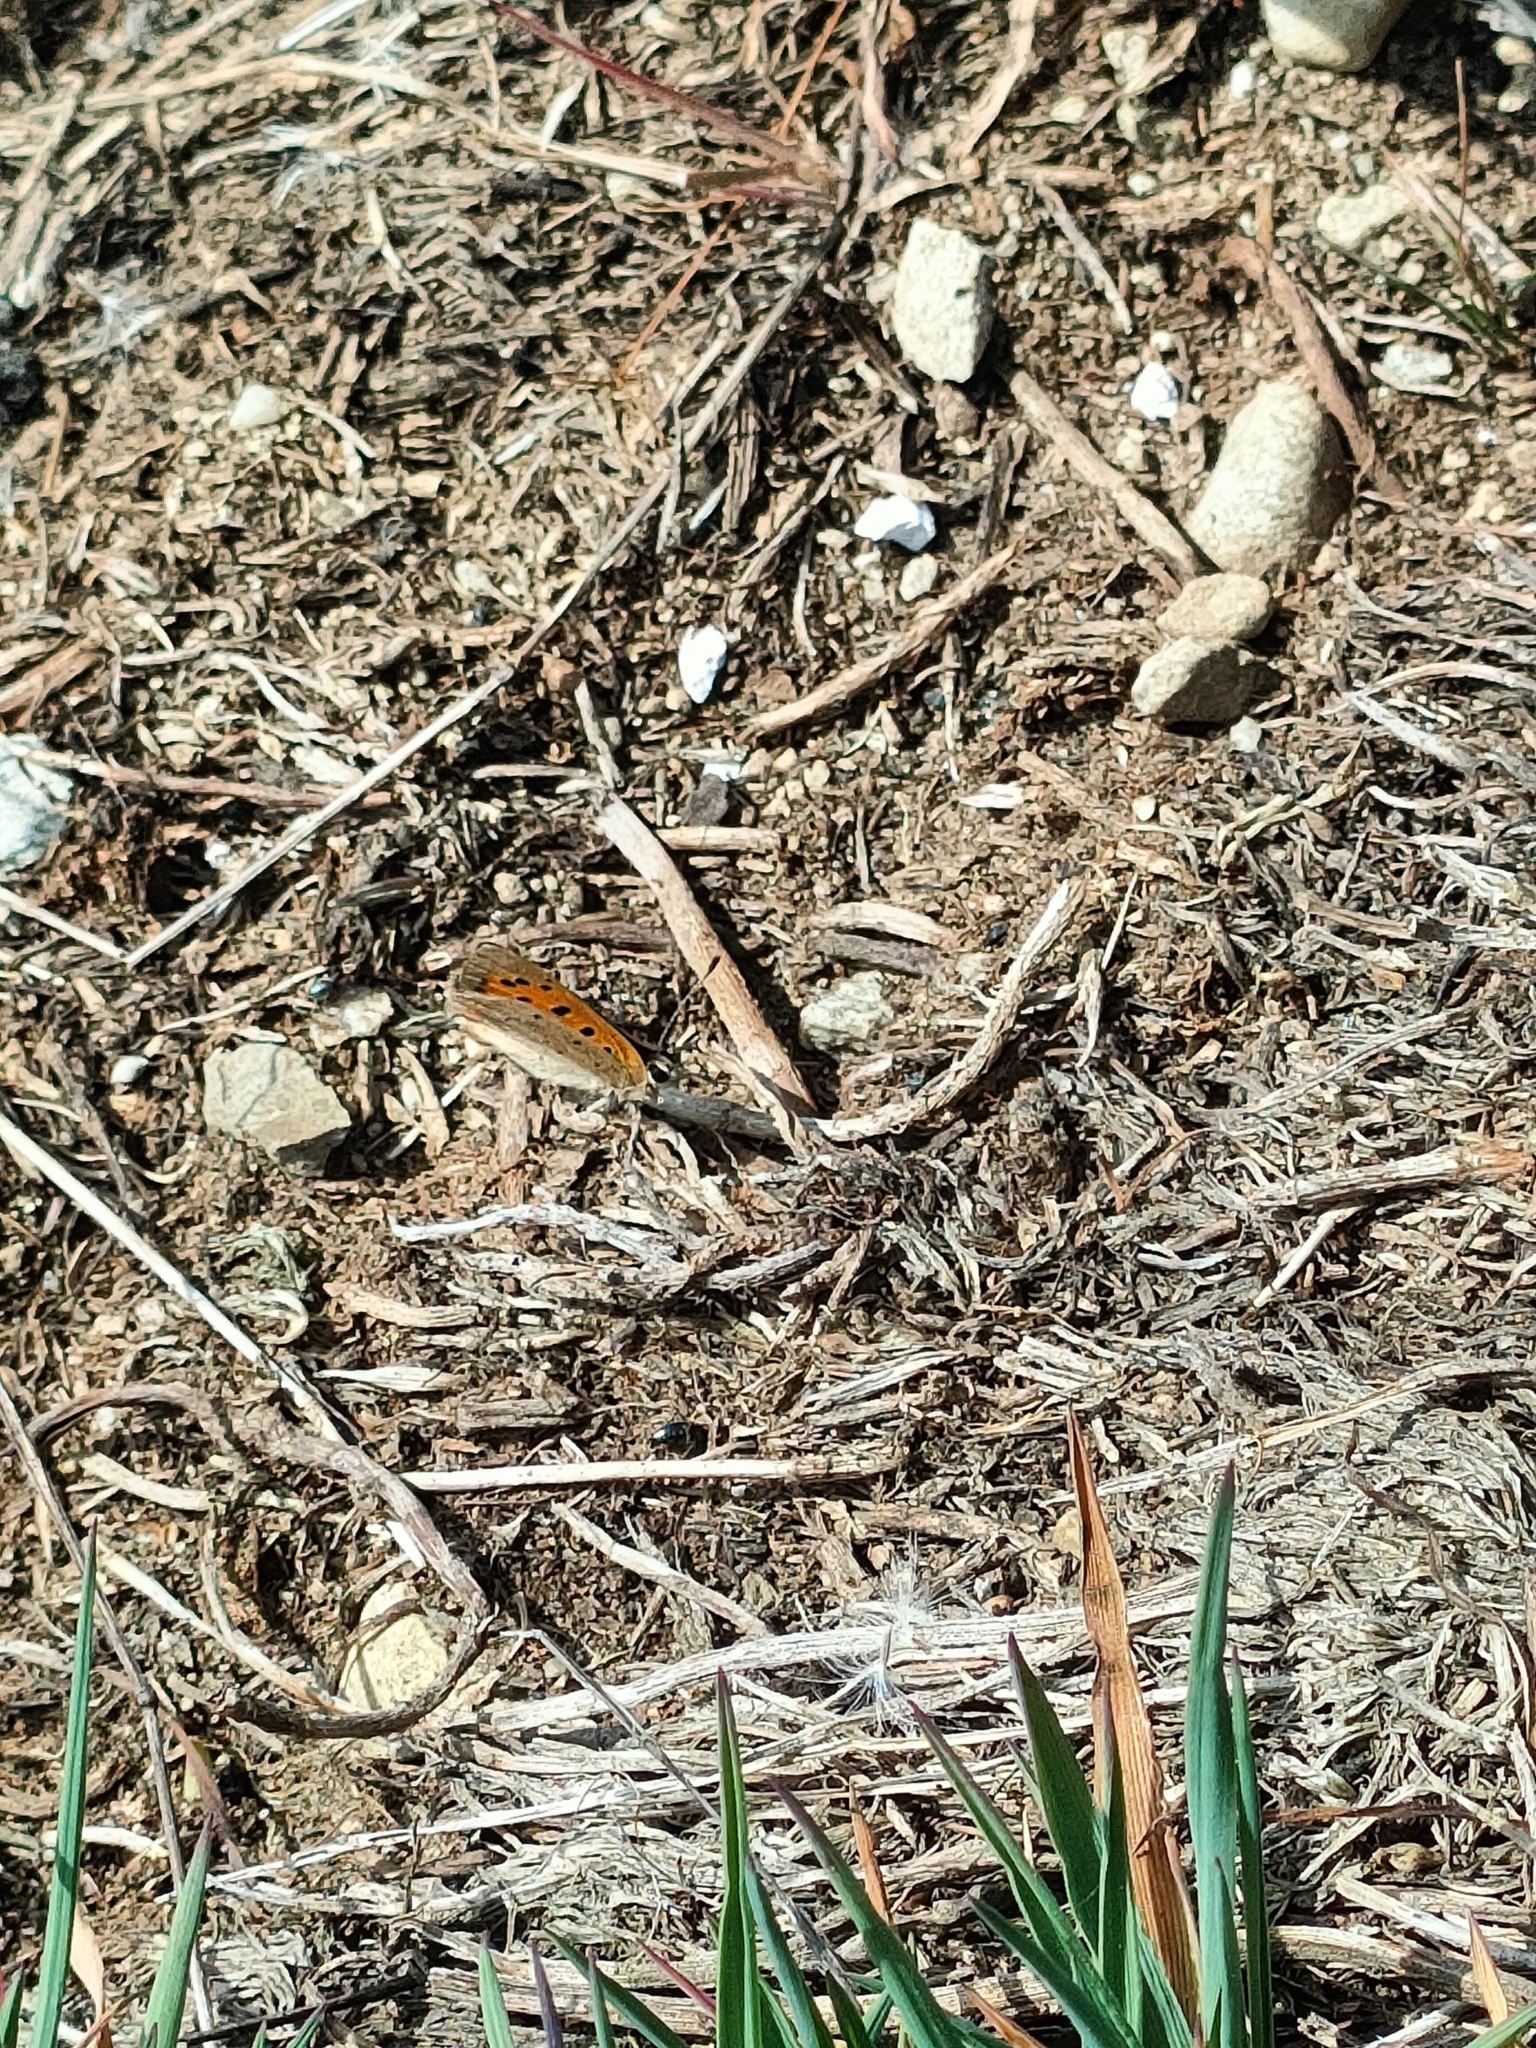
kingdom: Animalia
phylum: Arthropoda
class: Insecta
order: Lepidoptera
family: Lycaenidae
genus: Lycaena
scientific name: Lycaena phlaeas
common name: Small copper
